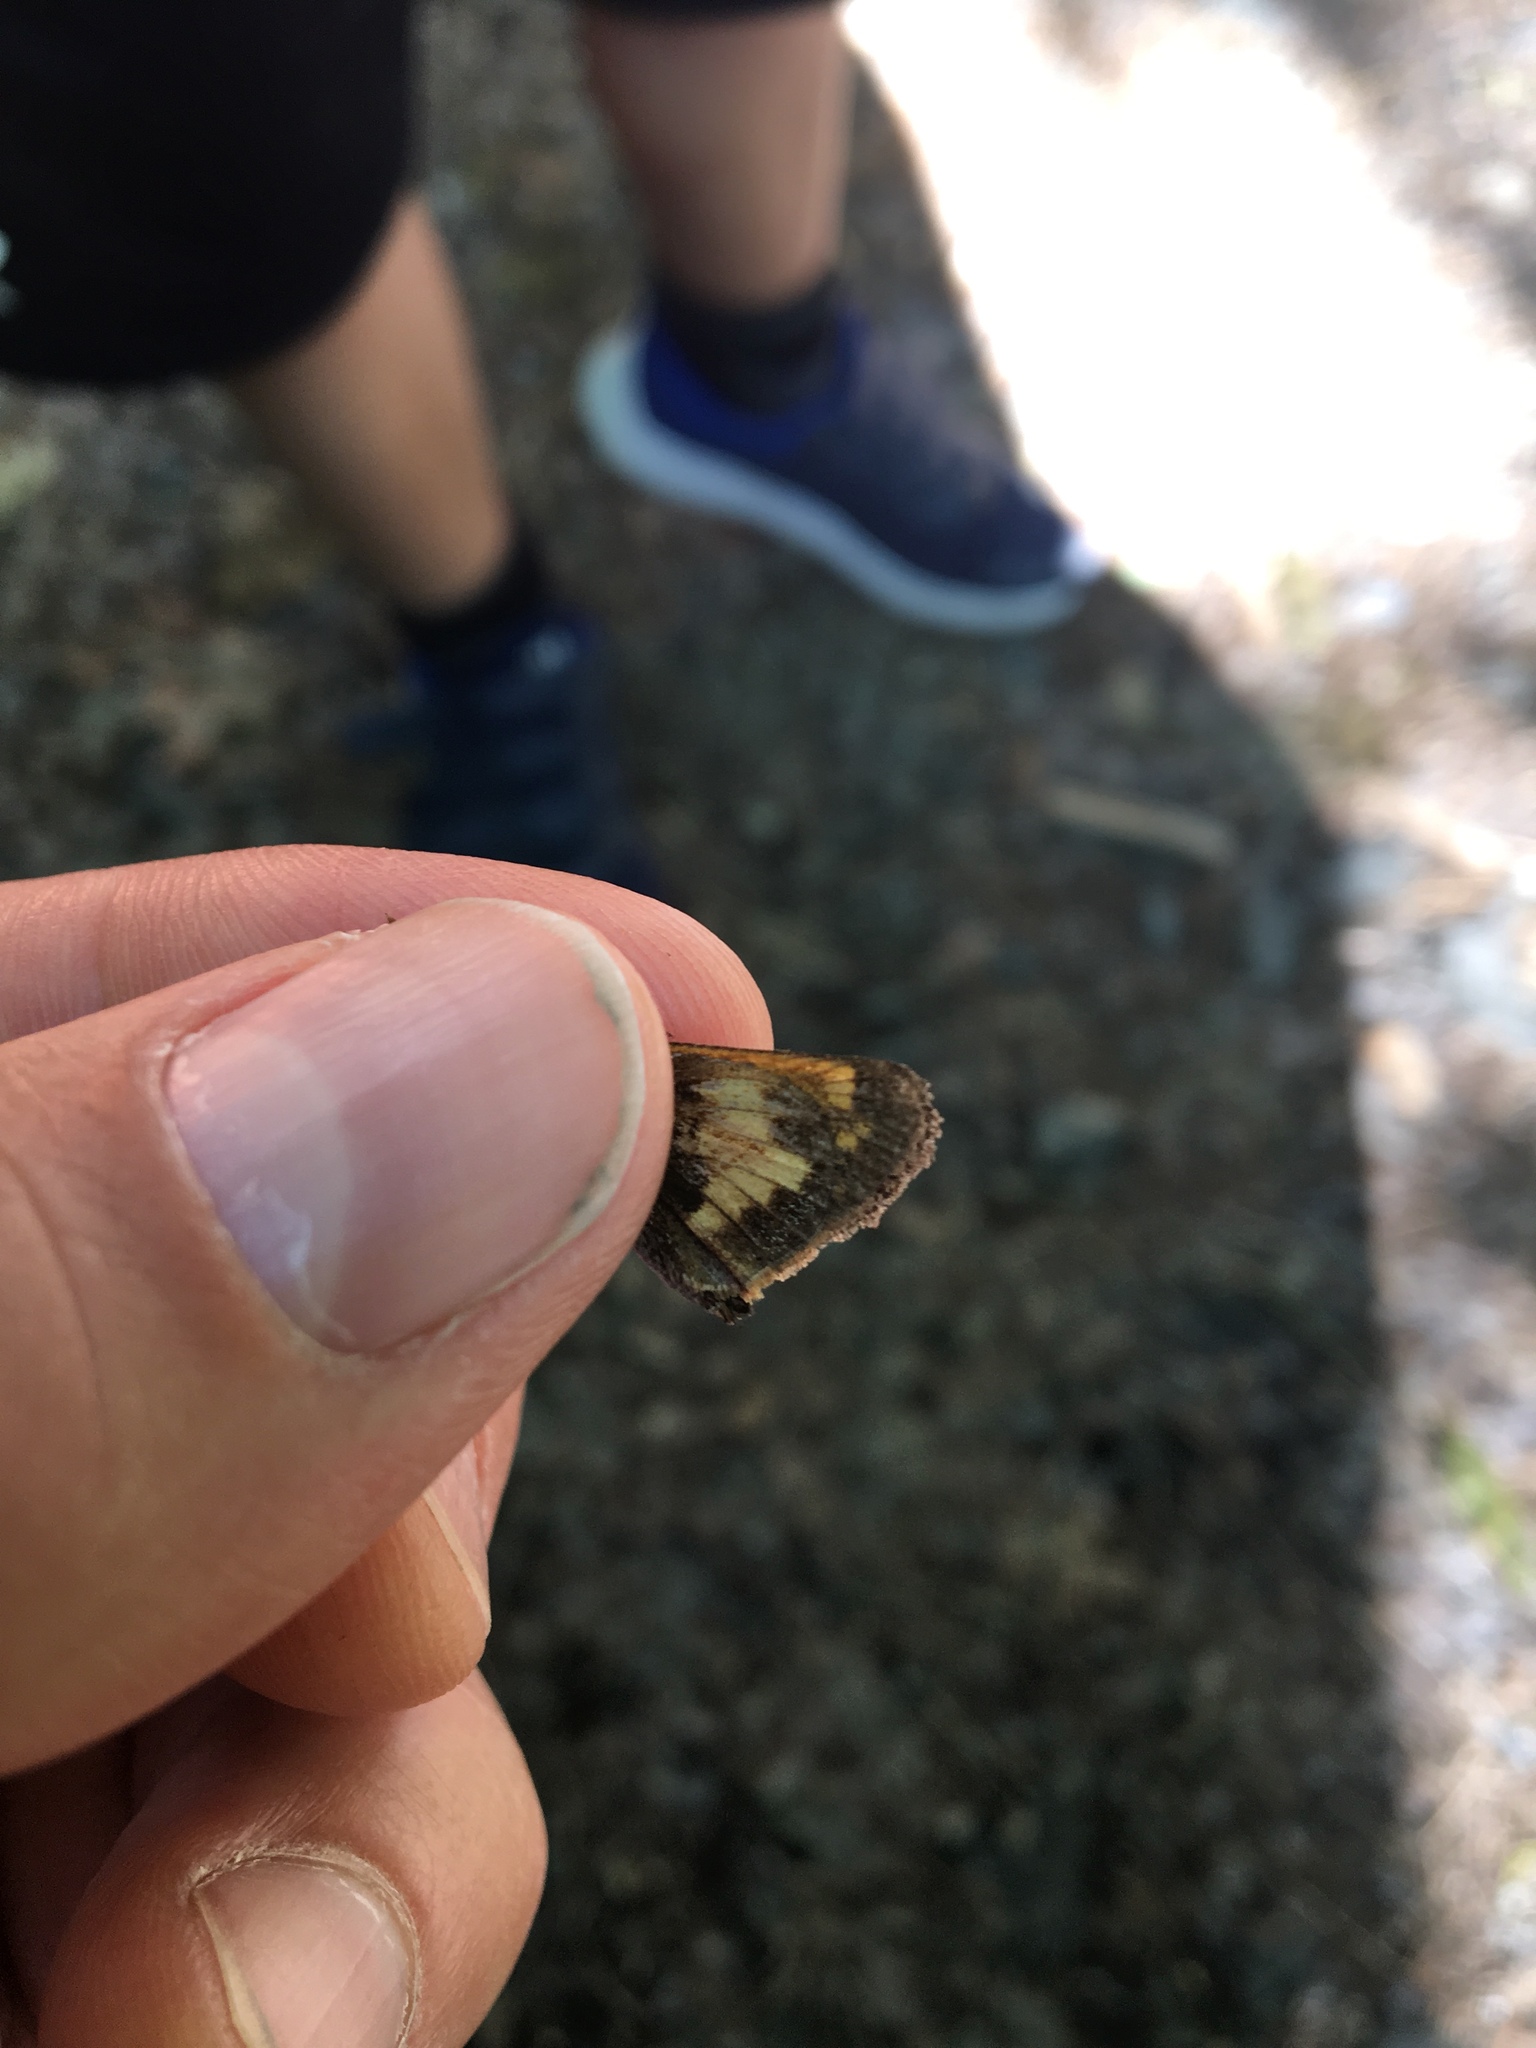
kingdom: Animalia
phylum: Arthropoda
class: Insecta
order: Lepidoptera
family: Hesperiidae
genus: Lon
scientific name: Lon hobomok
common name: Hobomok skipper
